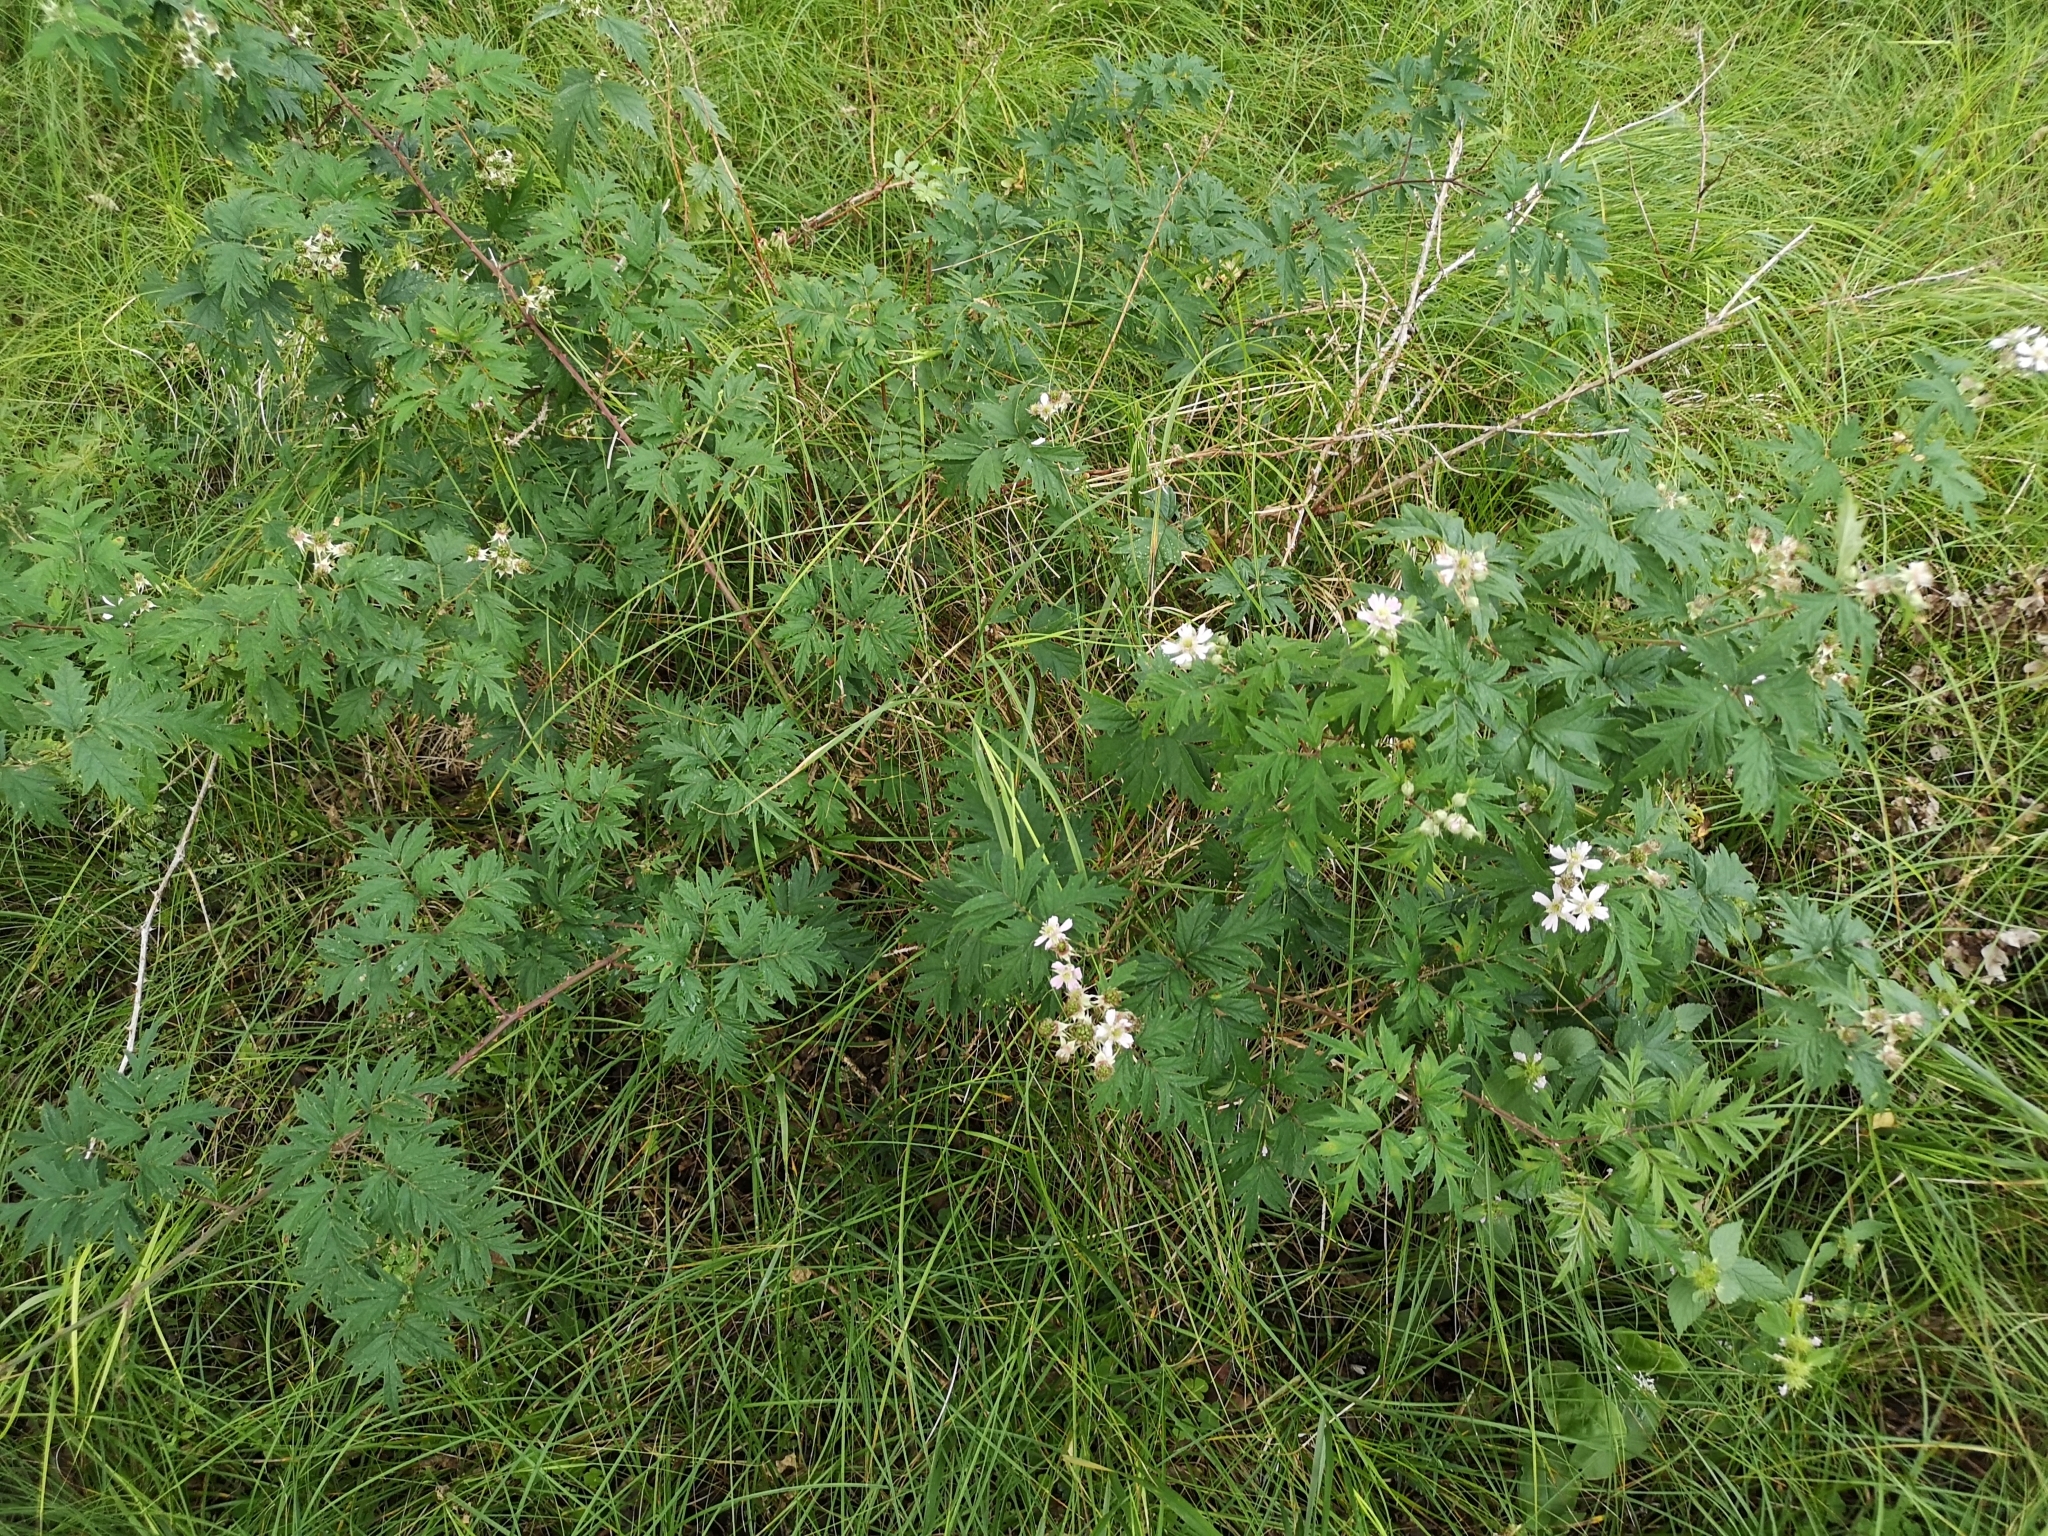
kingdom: Plantae
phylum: Tracheophyta
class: Magnoliopsida
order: Rosales
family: Rosaceae
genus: Rubus
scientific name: Rubus laciniatus
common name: Evergreen blackberry
